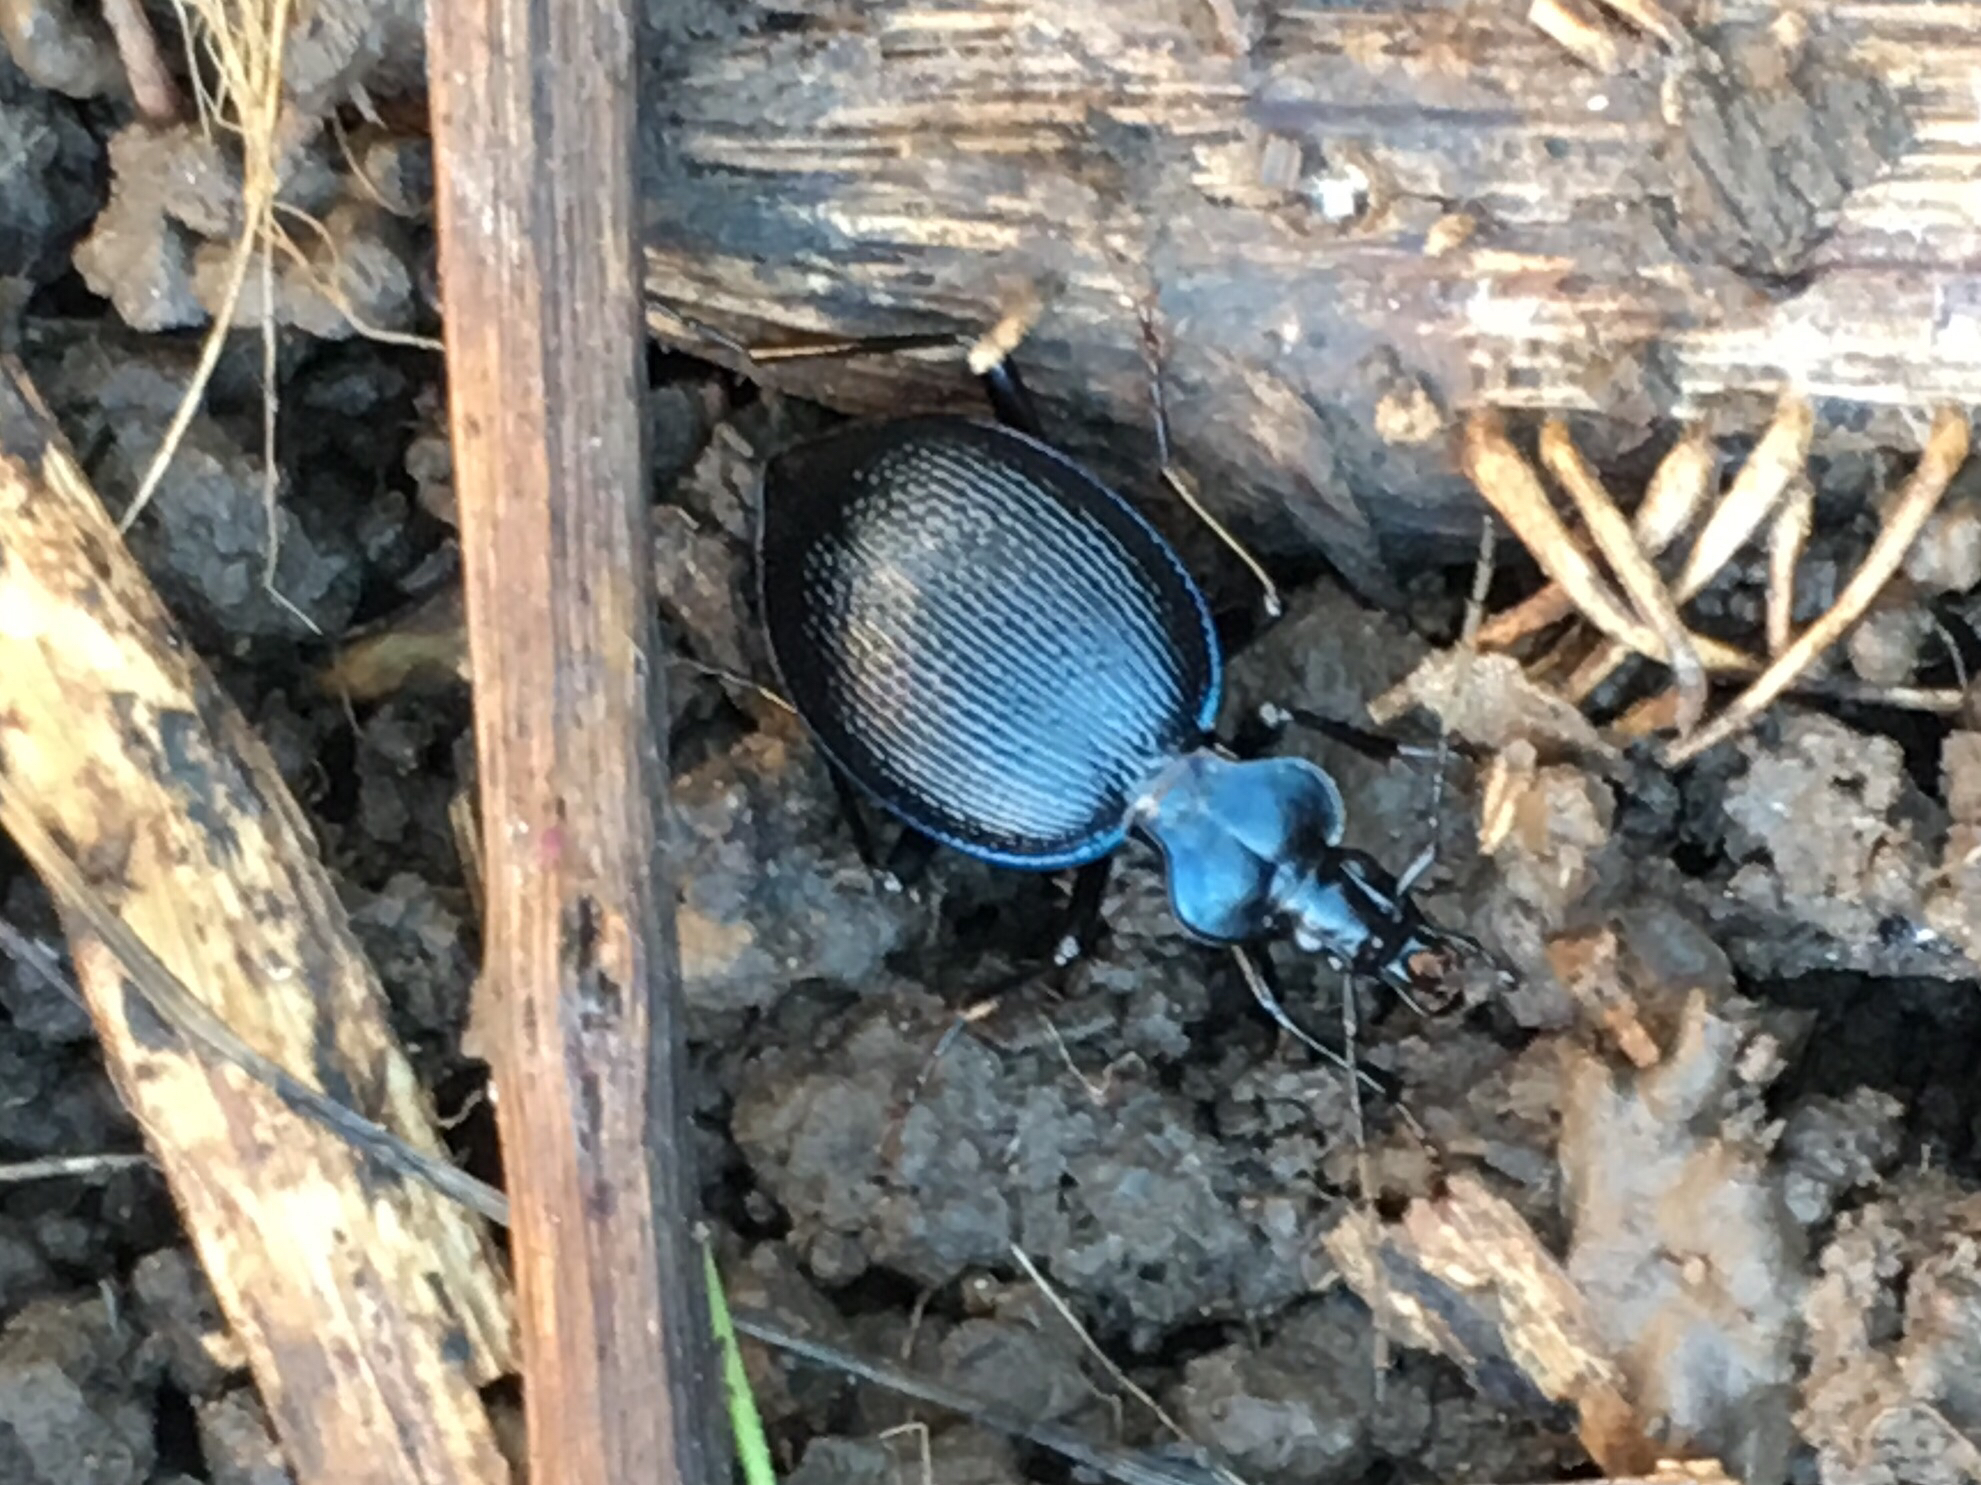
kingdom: Animalia
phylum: Arthropoda
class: Insecta
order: Coleoptera
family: Carabidae
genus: Scaphinotus
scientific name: Scaphinotus interruptus
